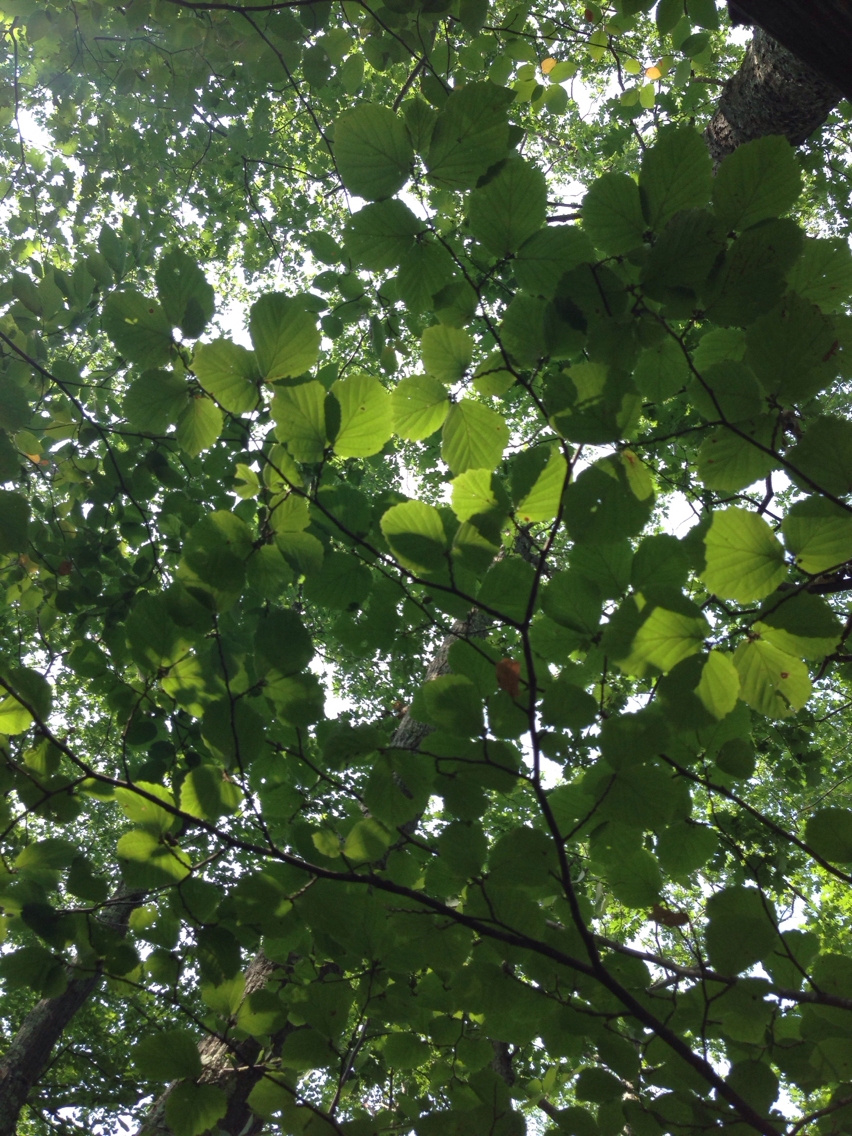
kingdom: Plantae
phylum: Tracheophyta
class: Magnoliopsida
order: Saxifragales
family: Hamamelidaceae
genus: Hamamelis
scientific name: Hamamelis virginiana
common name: Witch-hazel
